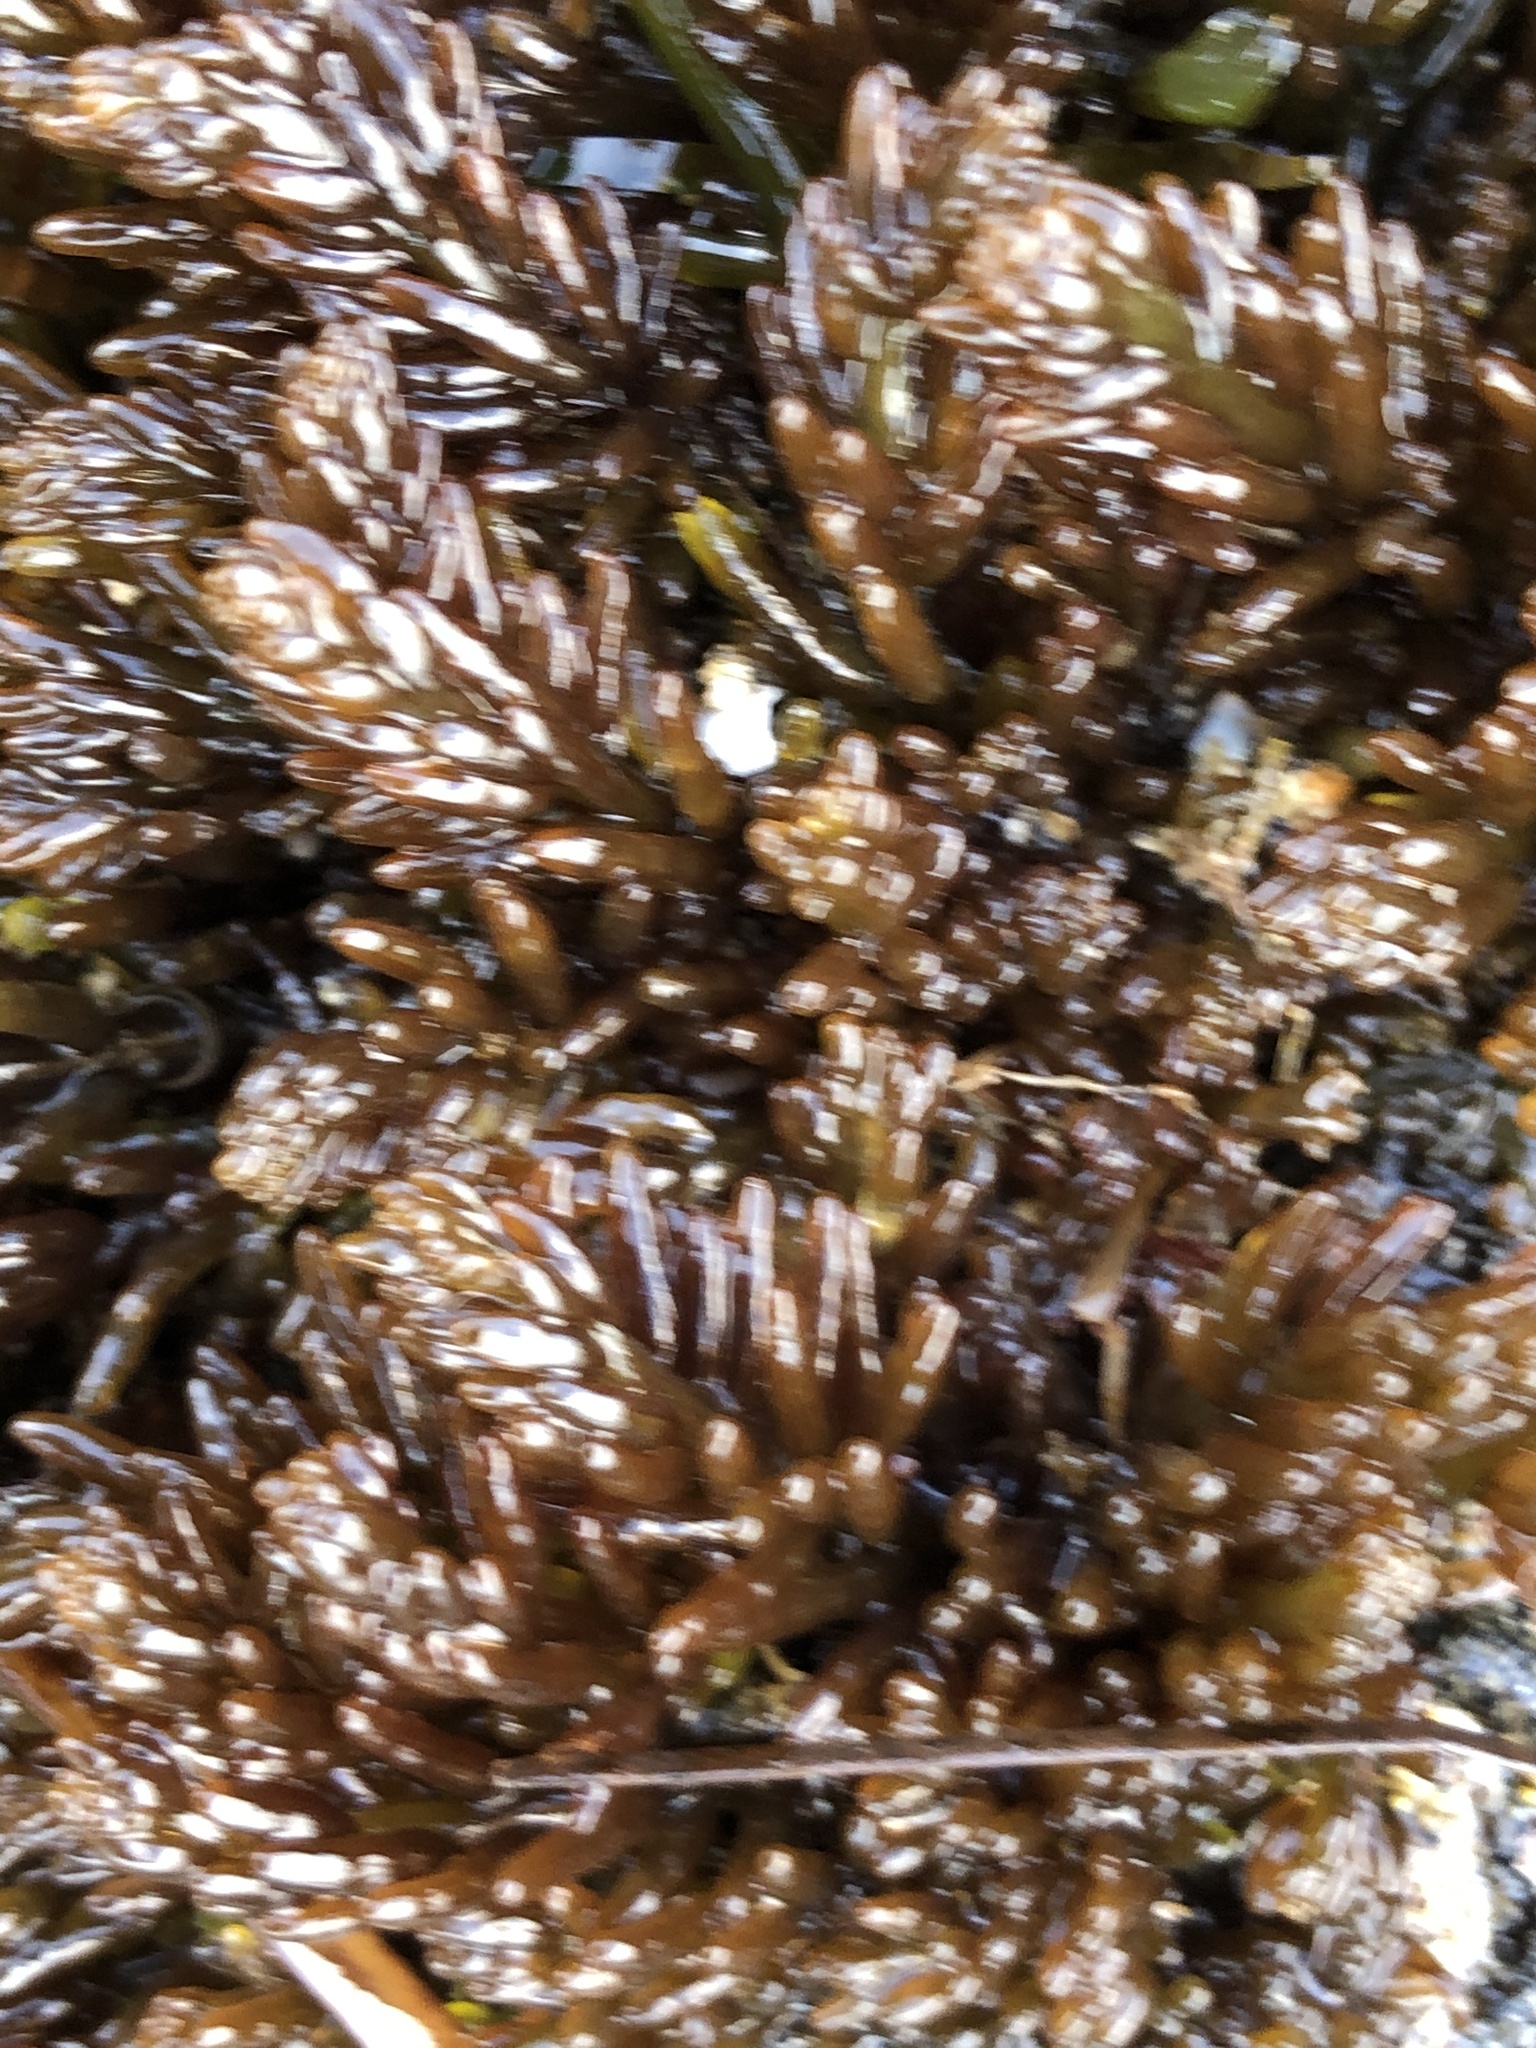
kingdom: Plantae
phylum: Rhodophyta
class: Florideophyceae
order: Rhodymeniales
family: Champiaceae
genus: Neogastroclonium
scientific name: Neogastroclonium subarticulatum
